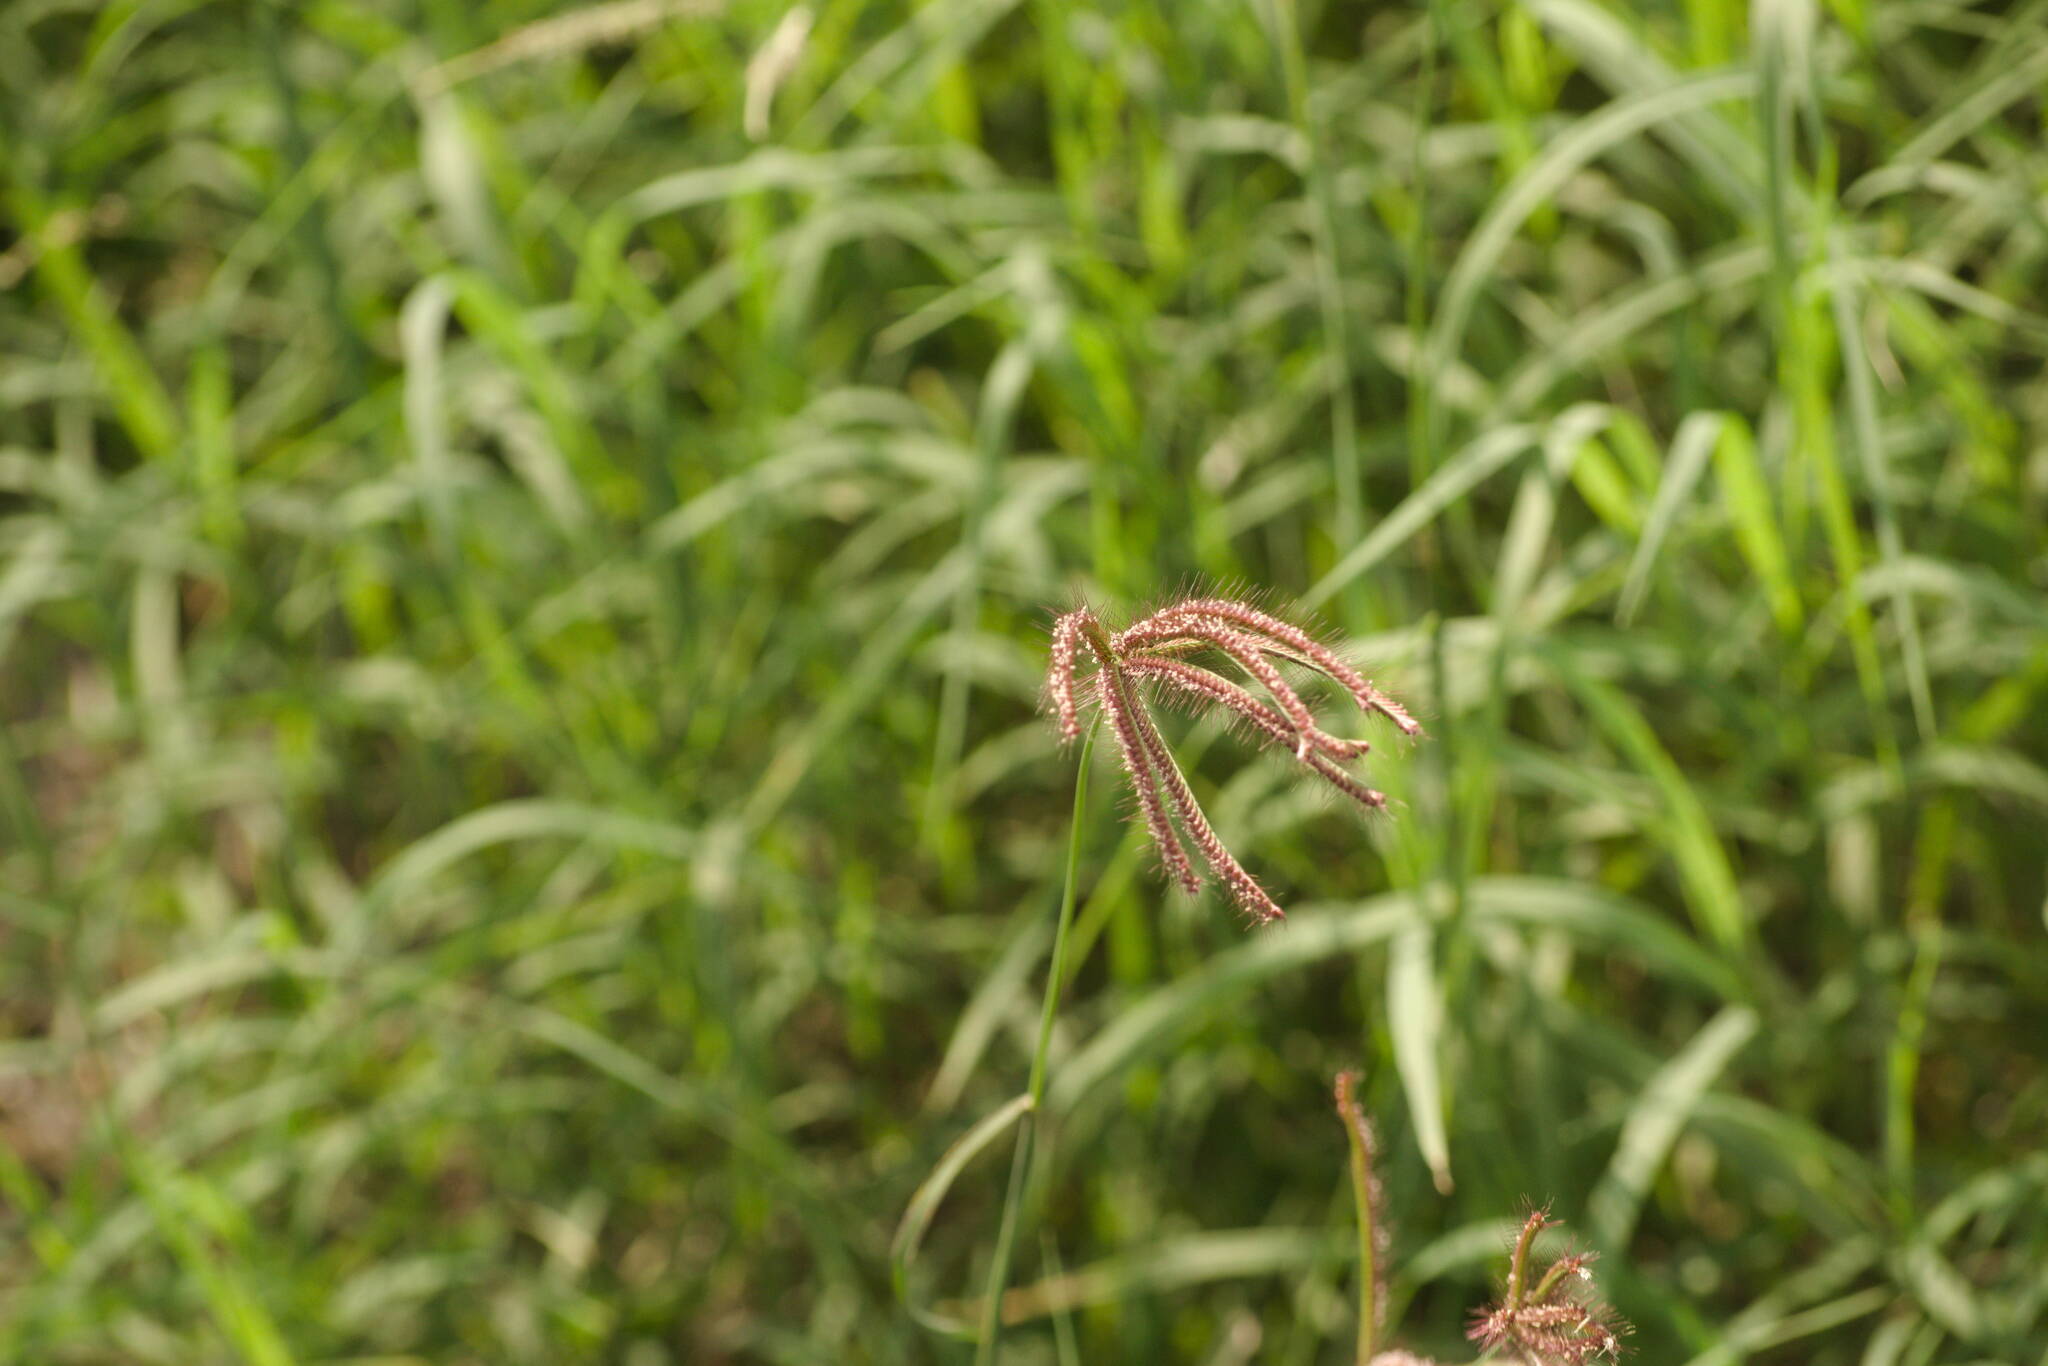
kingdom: Plantae
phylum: Tracheophyta
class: Liliopsida
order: Poales
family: Poaceae
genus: Chloris
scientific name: Chloris barbata
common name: Swollen fingergrass
